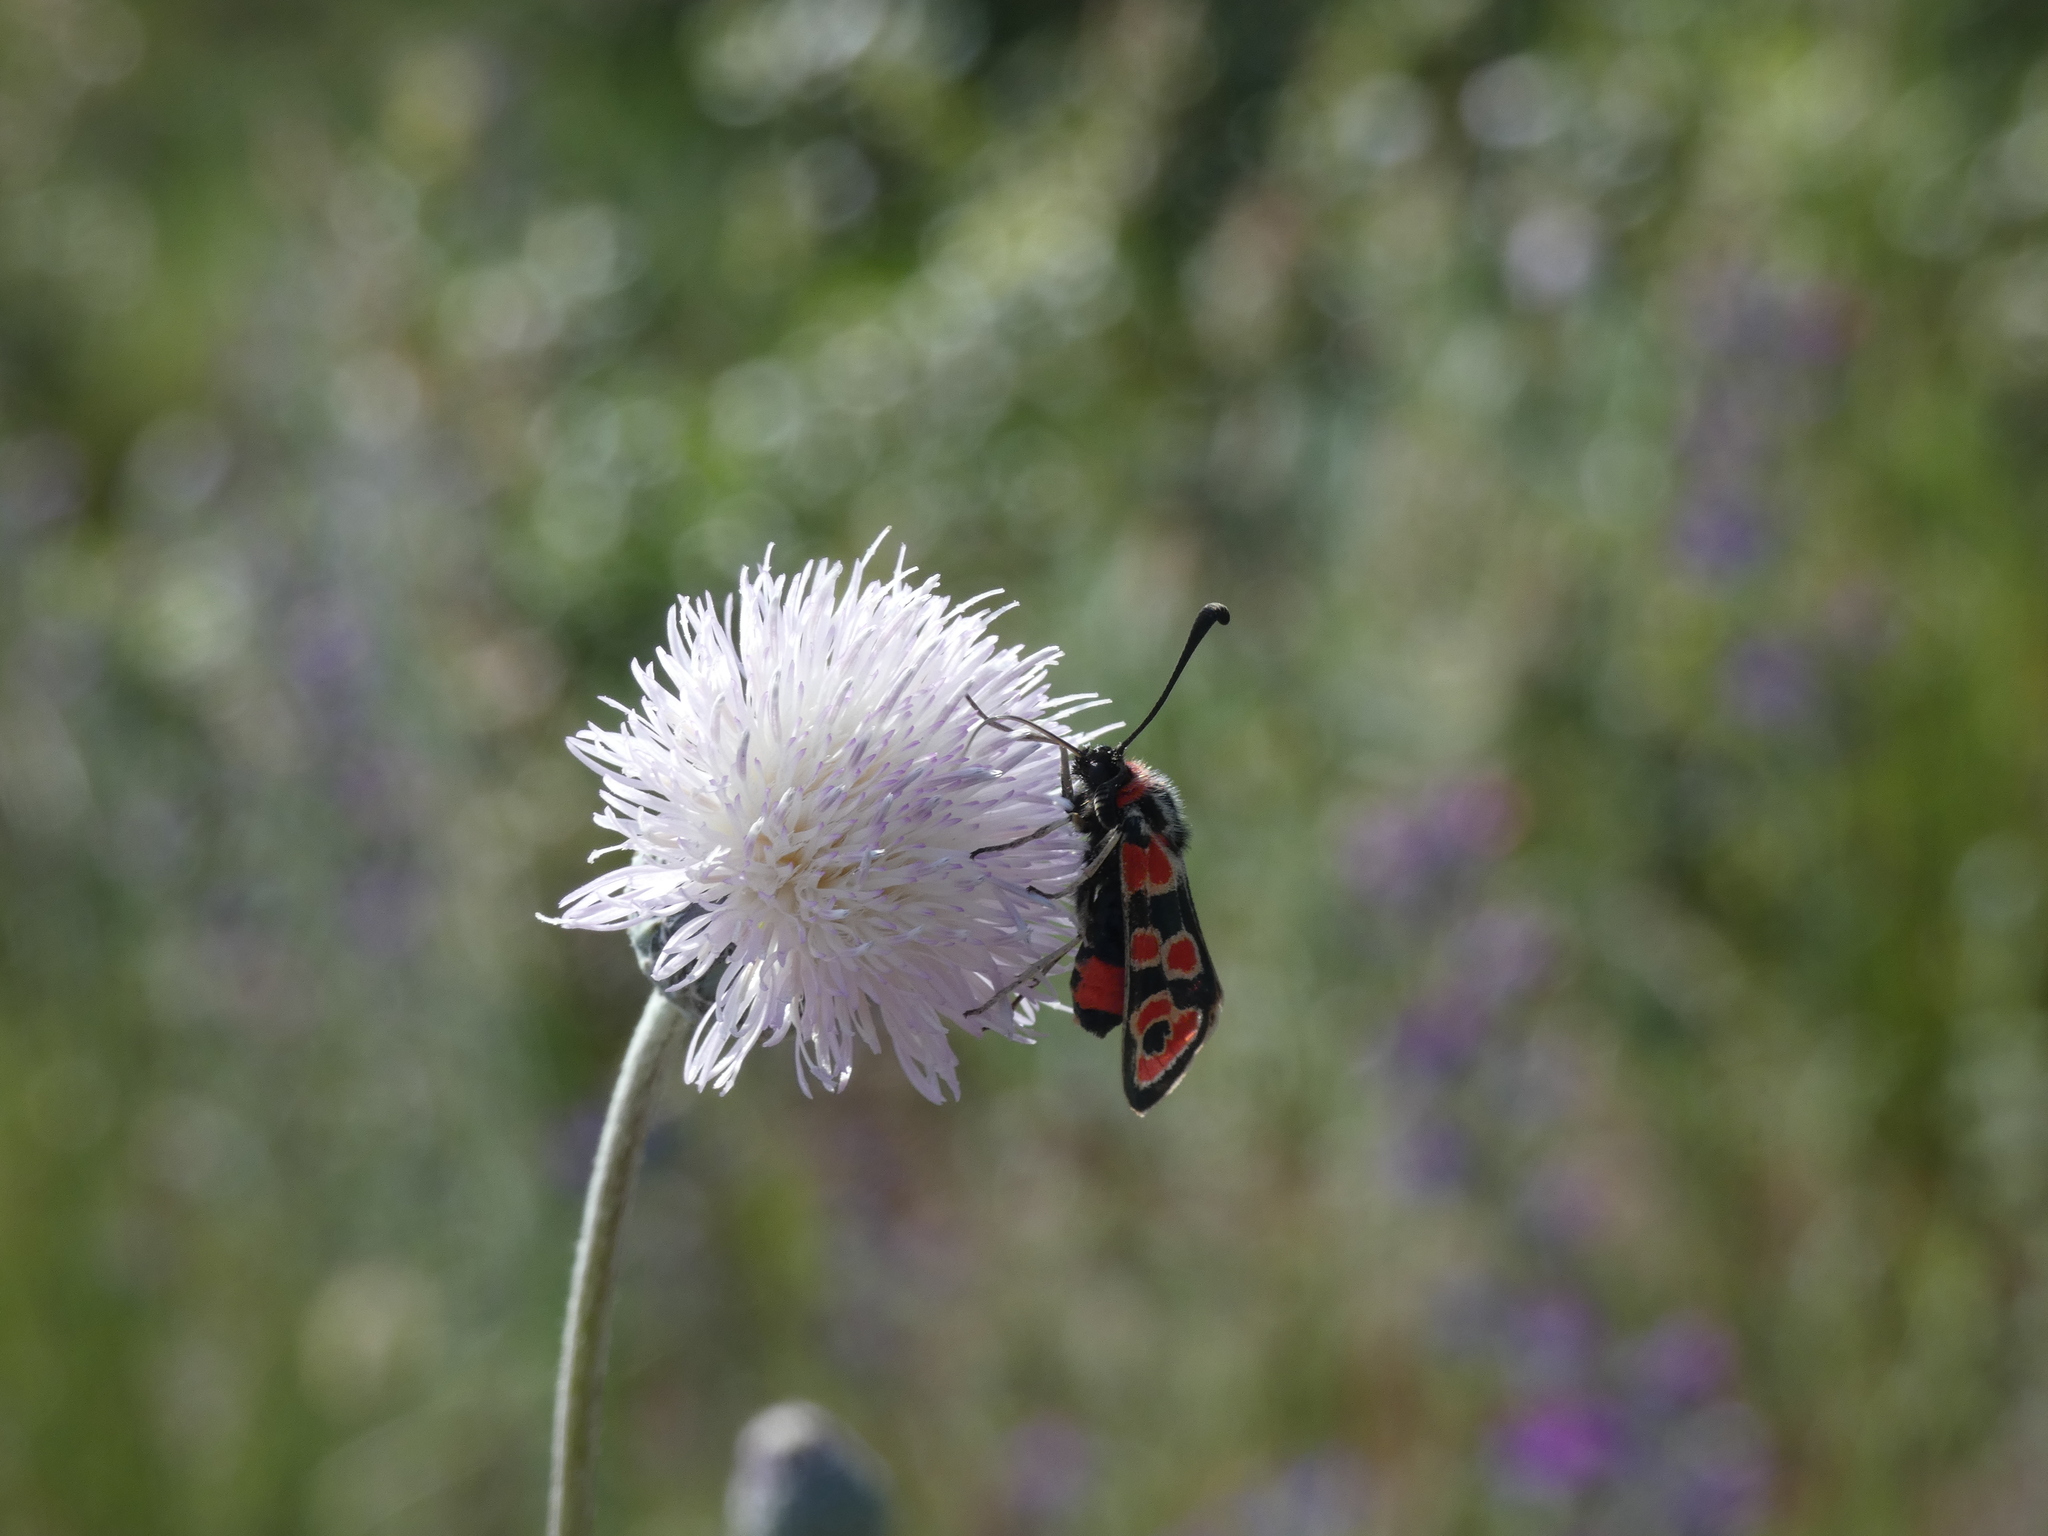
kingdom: Animalia
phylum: Arthropoda
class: Insecta
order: Lepidoptera
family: Zygaenidae
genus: Zygaena
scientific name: Zygaena fausta
